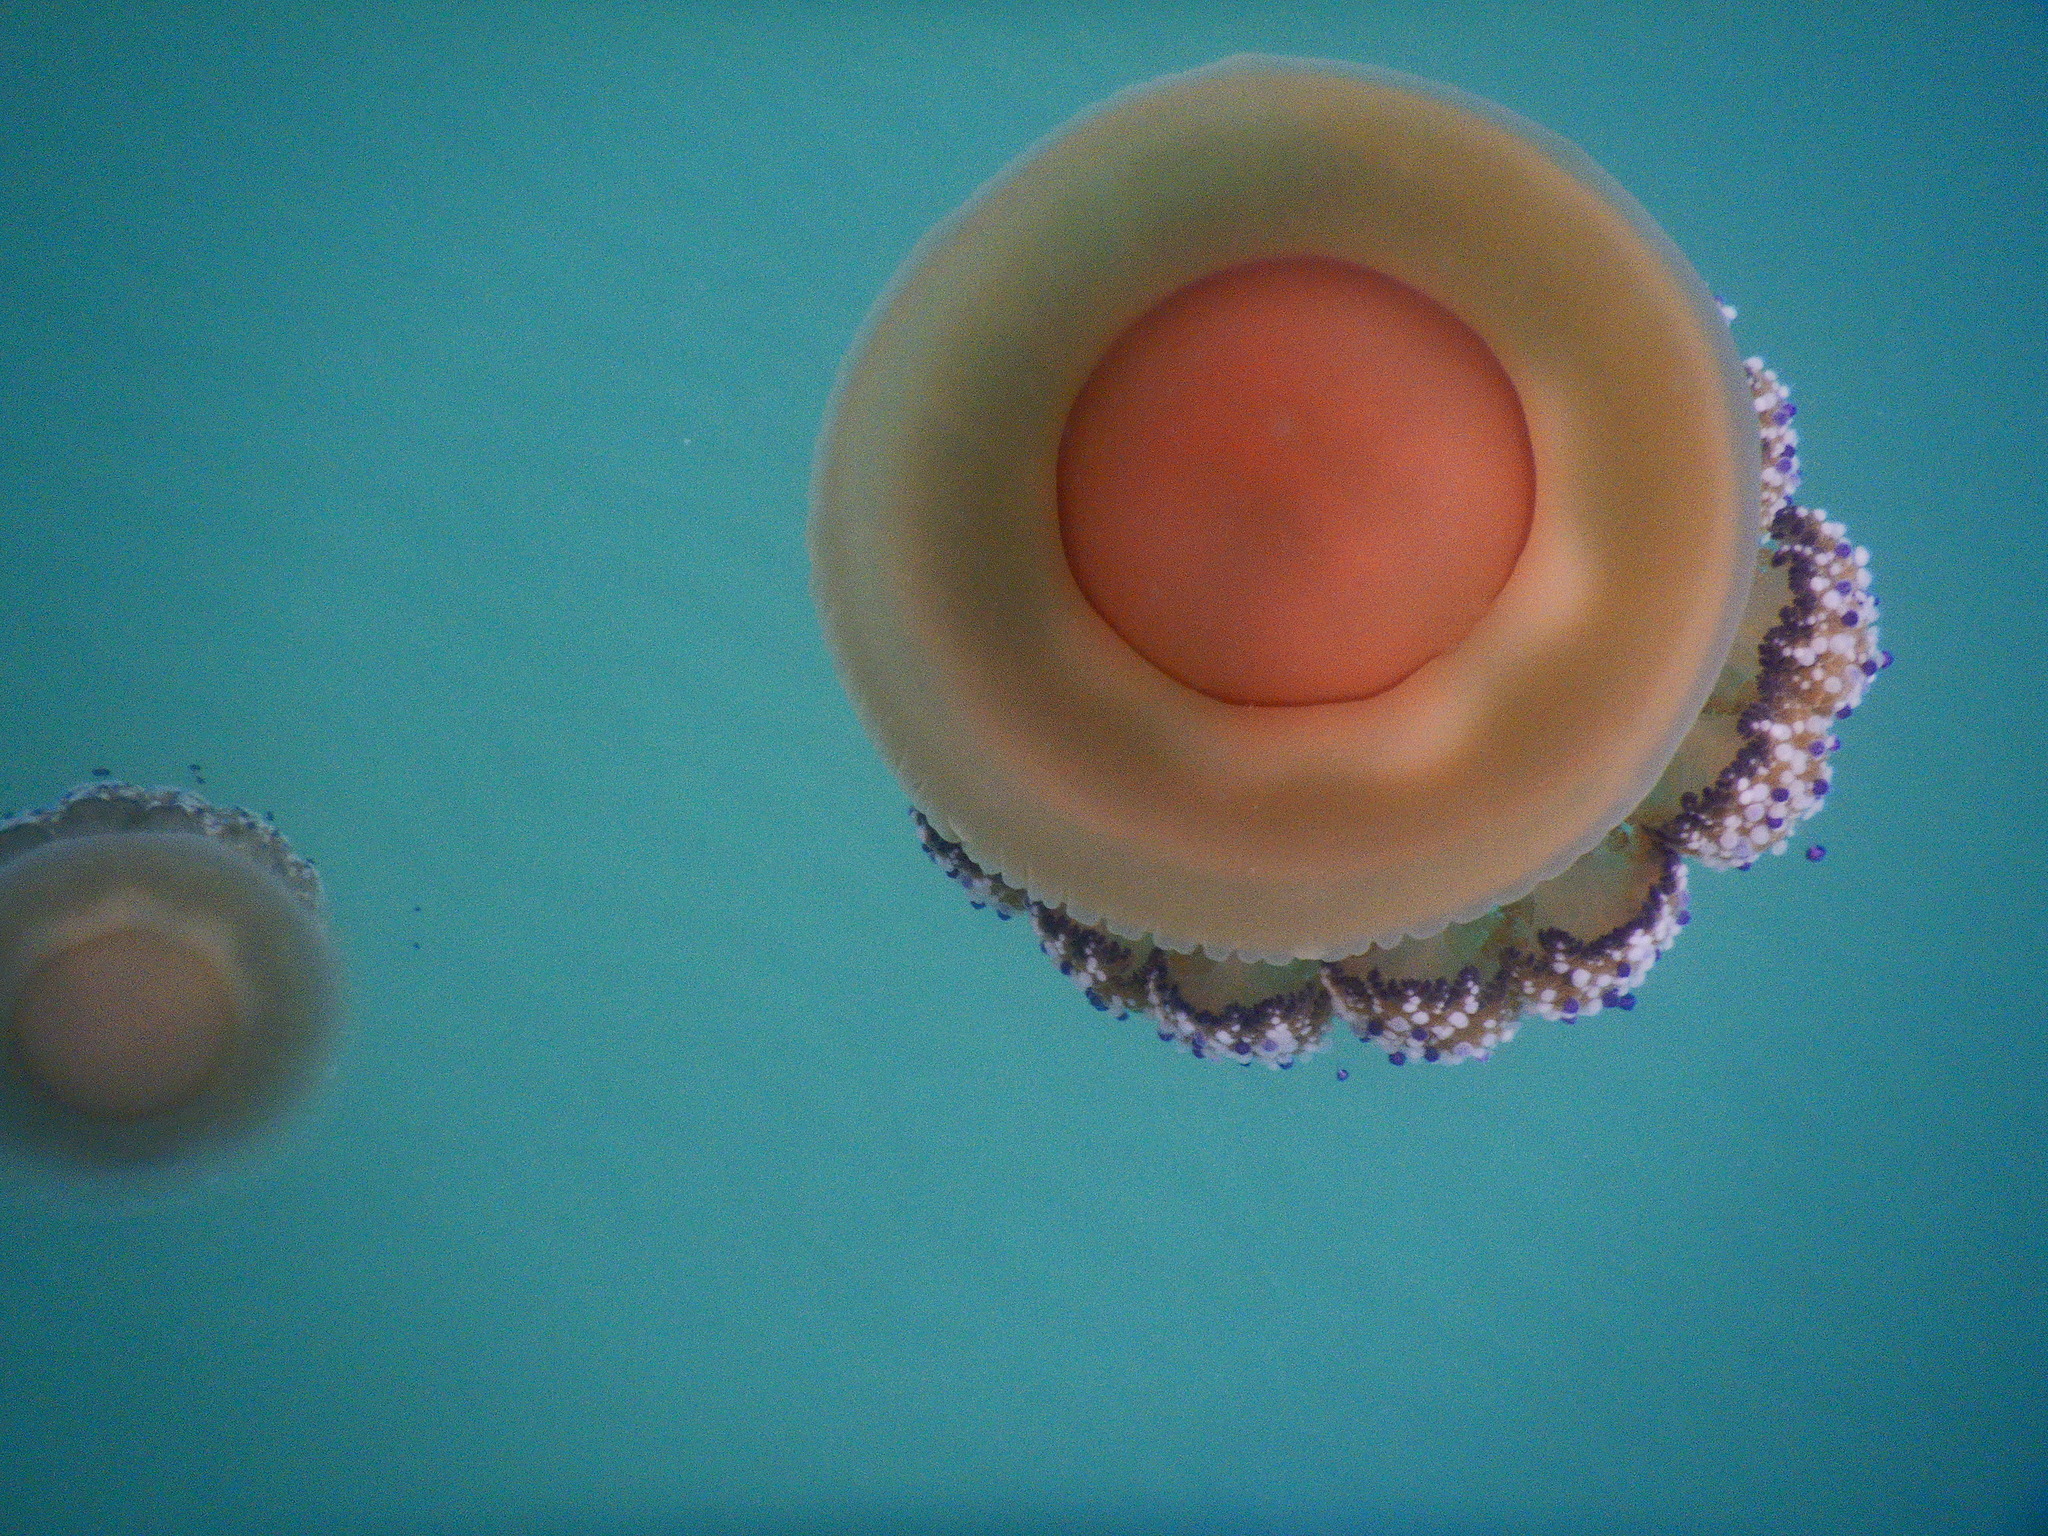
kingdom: Animalia
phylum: Cnidaria
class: Scyphozoa
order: Rhizostomeae
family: Cepheidae
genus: Cotylorhiza
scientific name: Cotylorhiza tuberculata
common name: Mediterranean jelly
